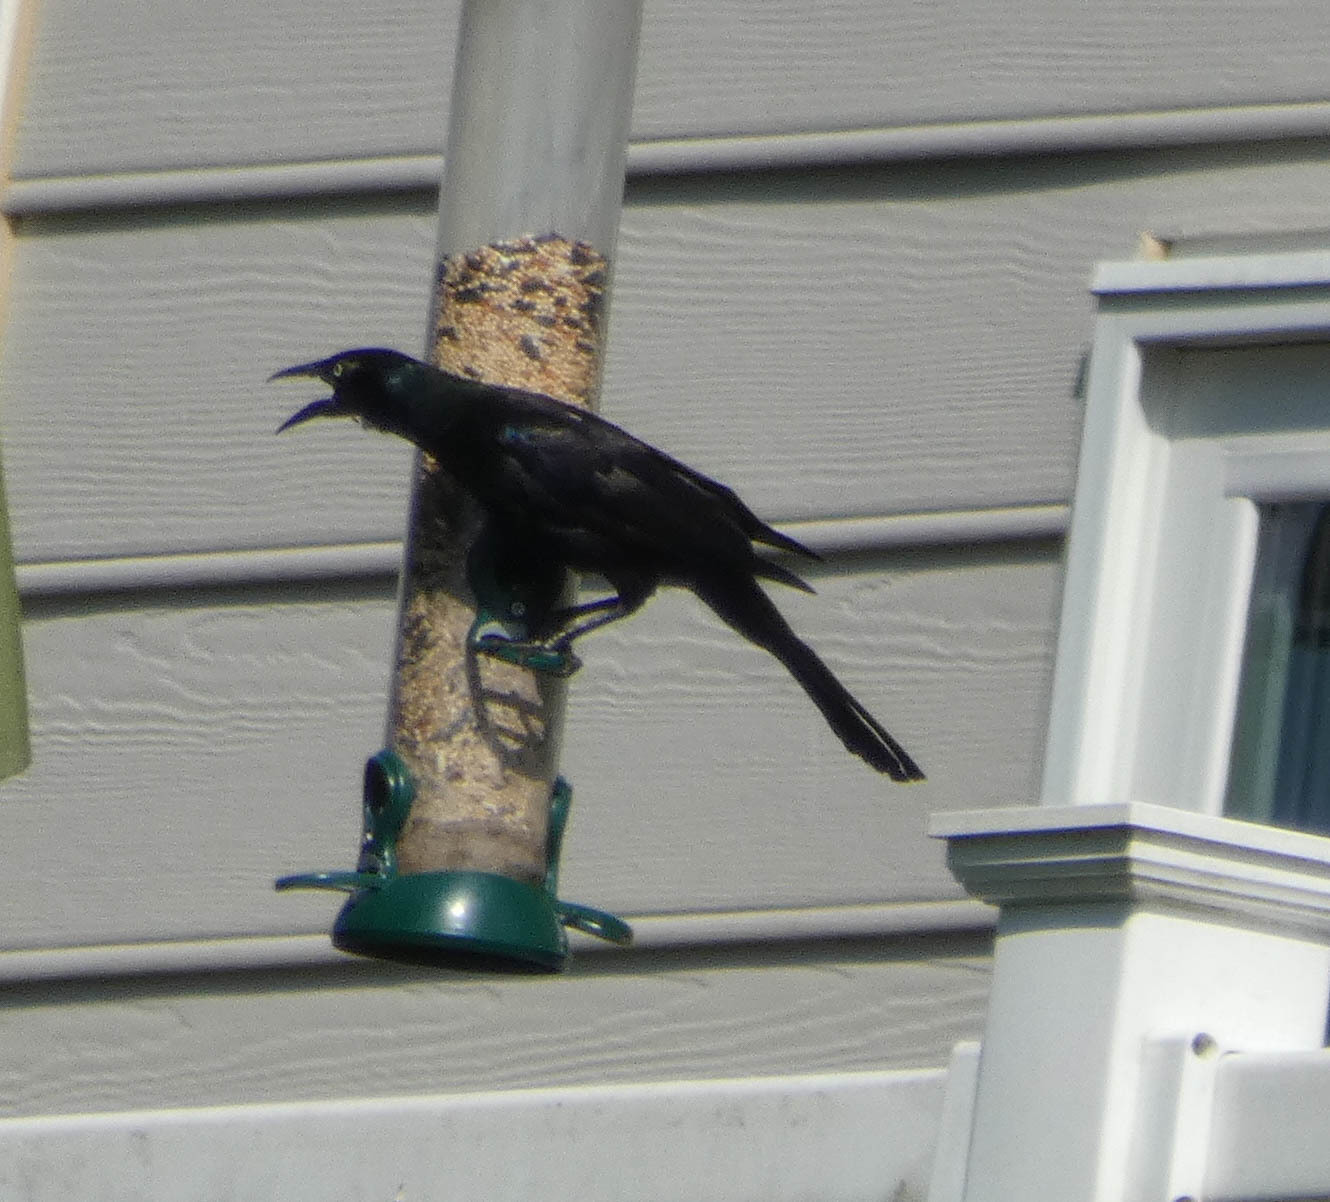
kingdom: Animalia
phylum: Chordata
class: Aves
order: Passeriformes
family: Icteridae
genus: Quiscalus
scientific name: Quiscalus quiscula
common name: Common grackle
